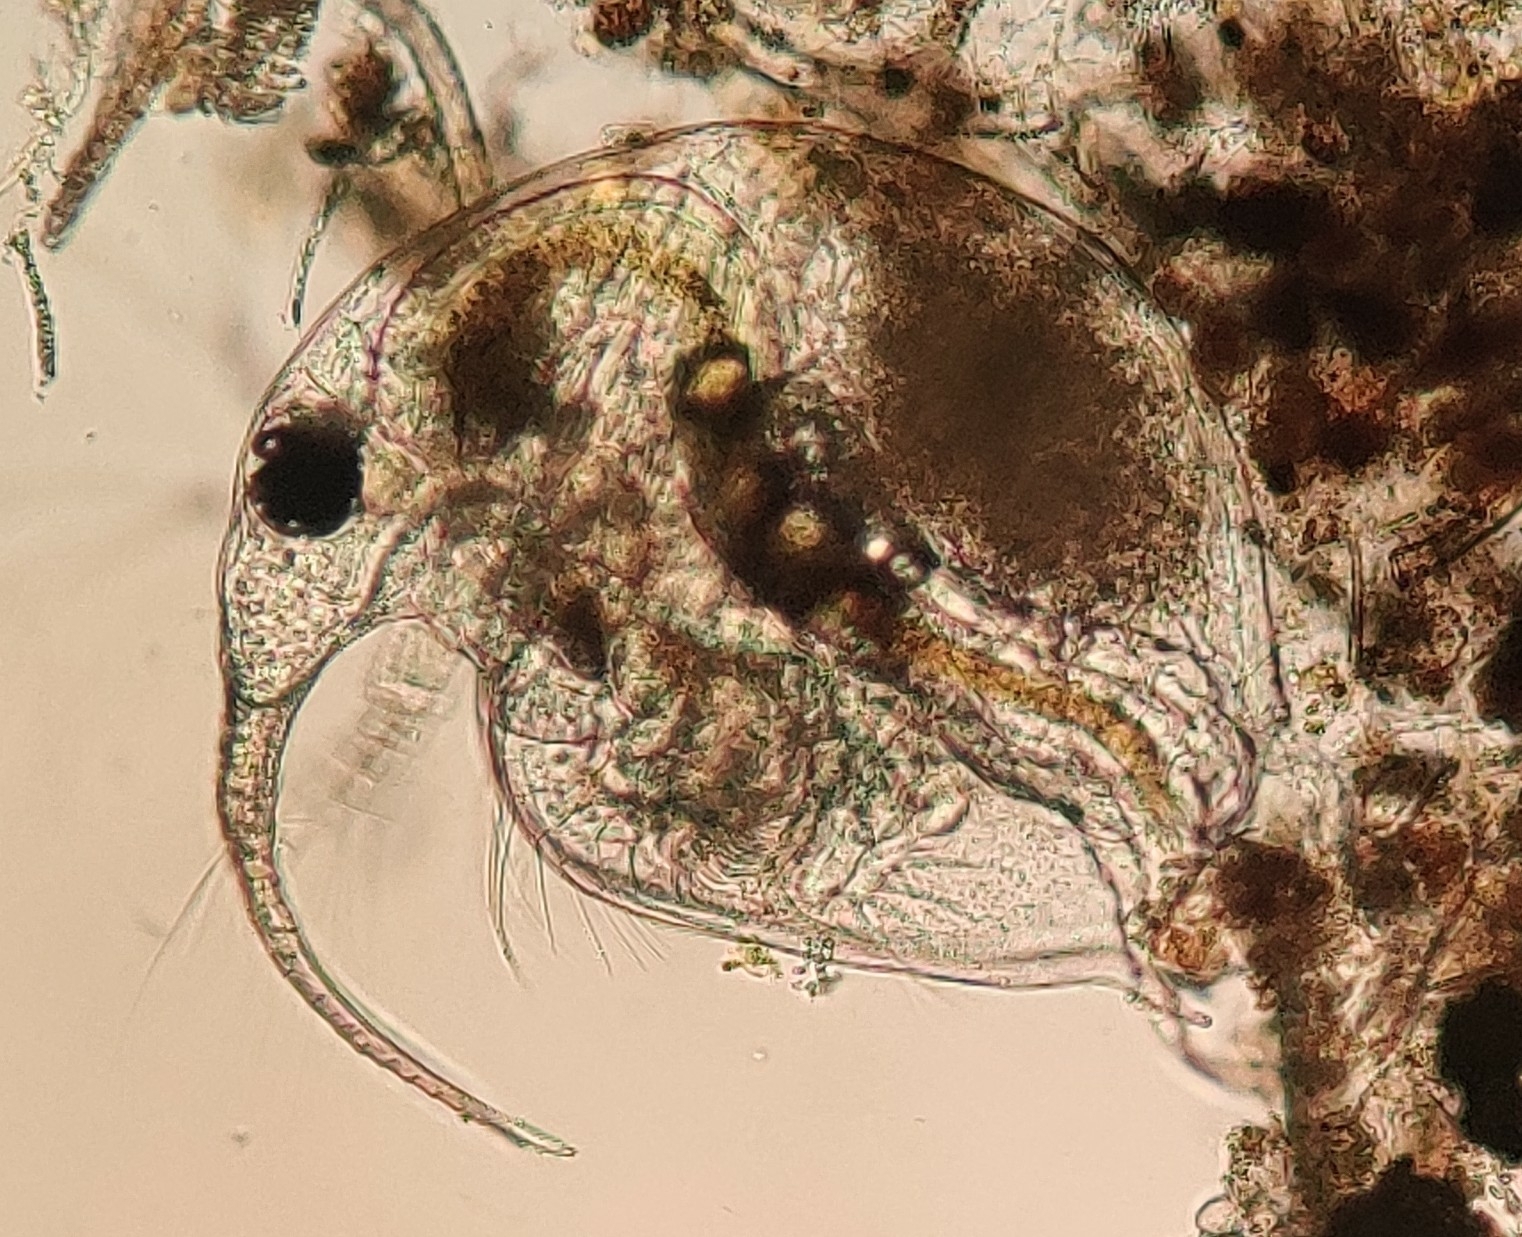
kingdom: Animalia
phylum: Arthropoda
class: Branchiopoda
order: Diplostraca
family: Bosminidae
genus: Bosmina
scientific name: Bosmina longirostris
